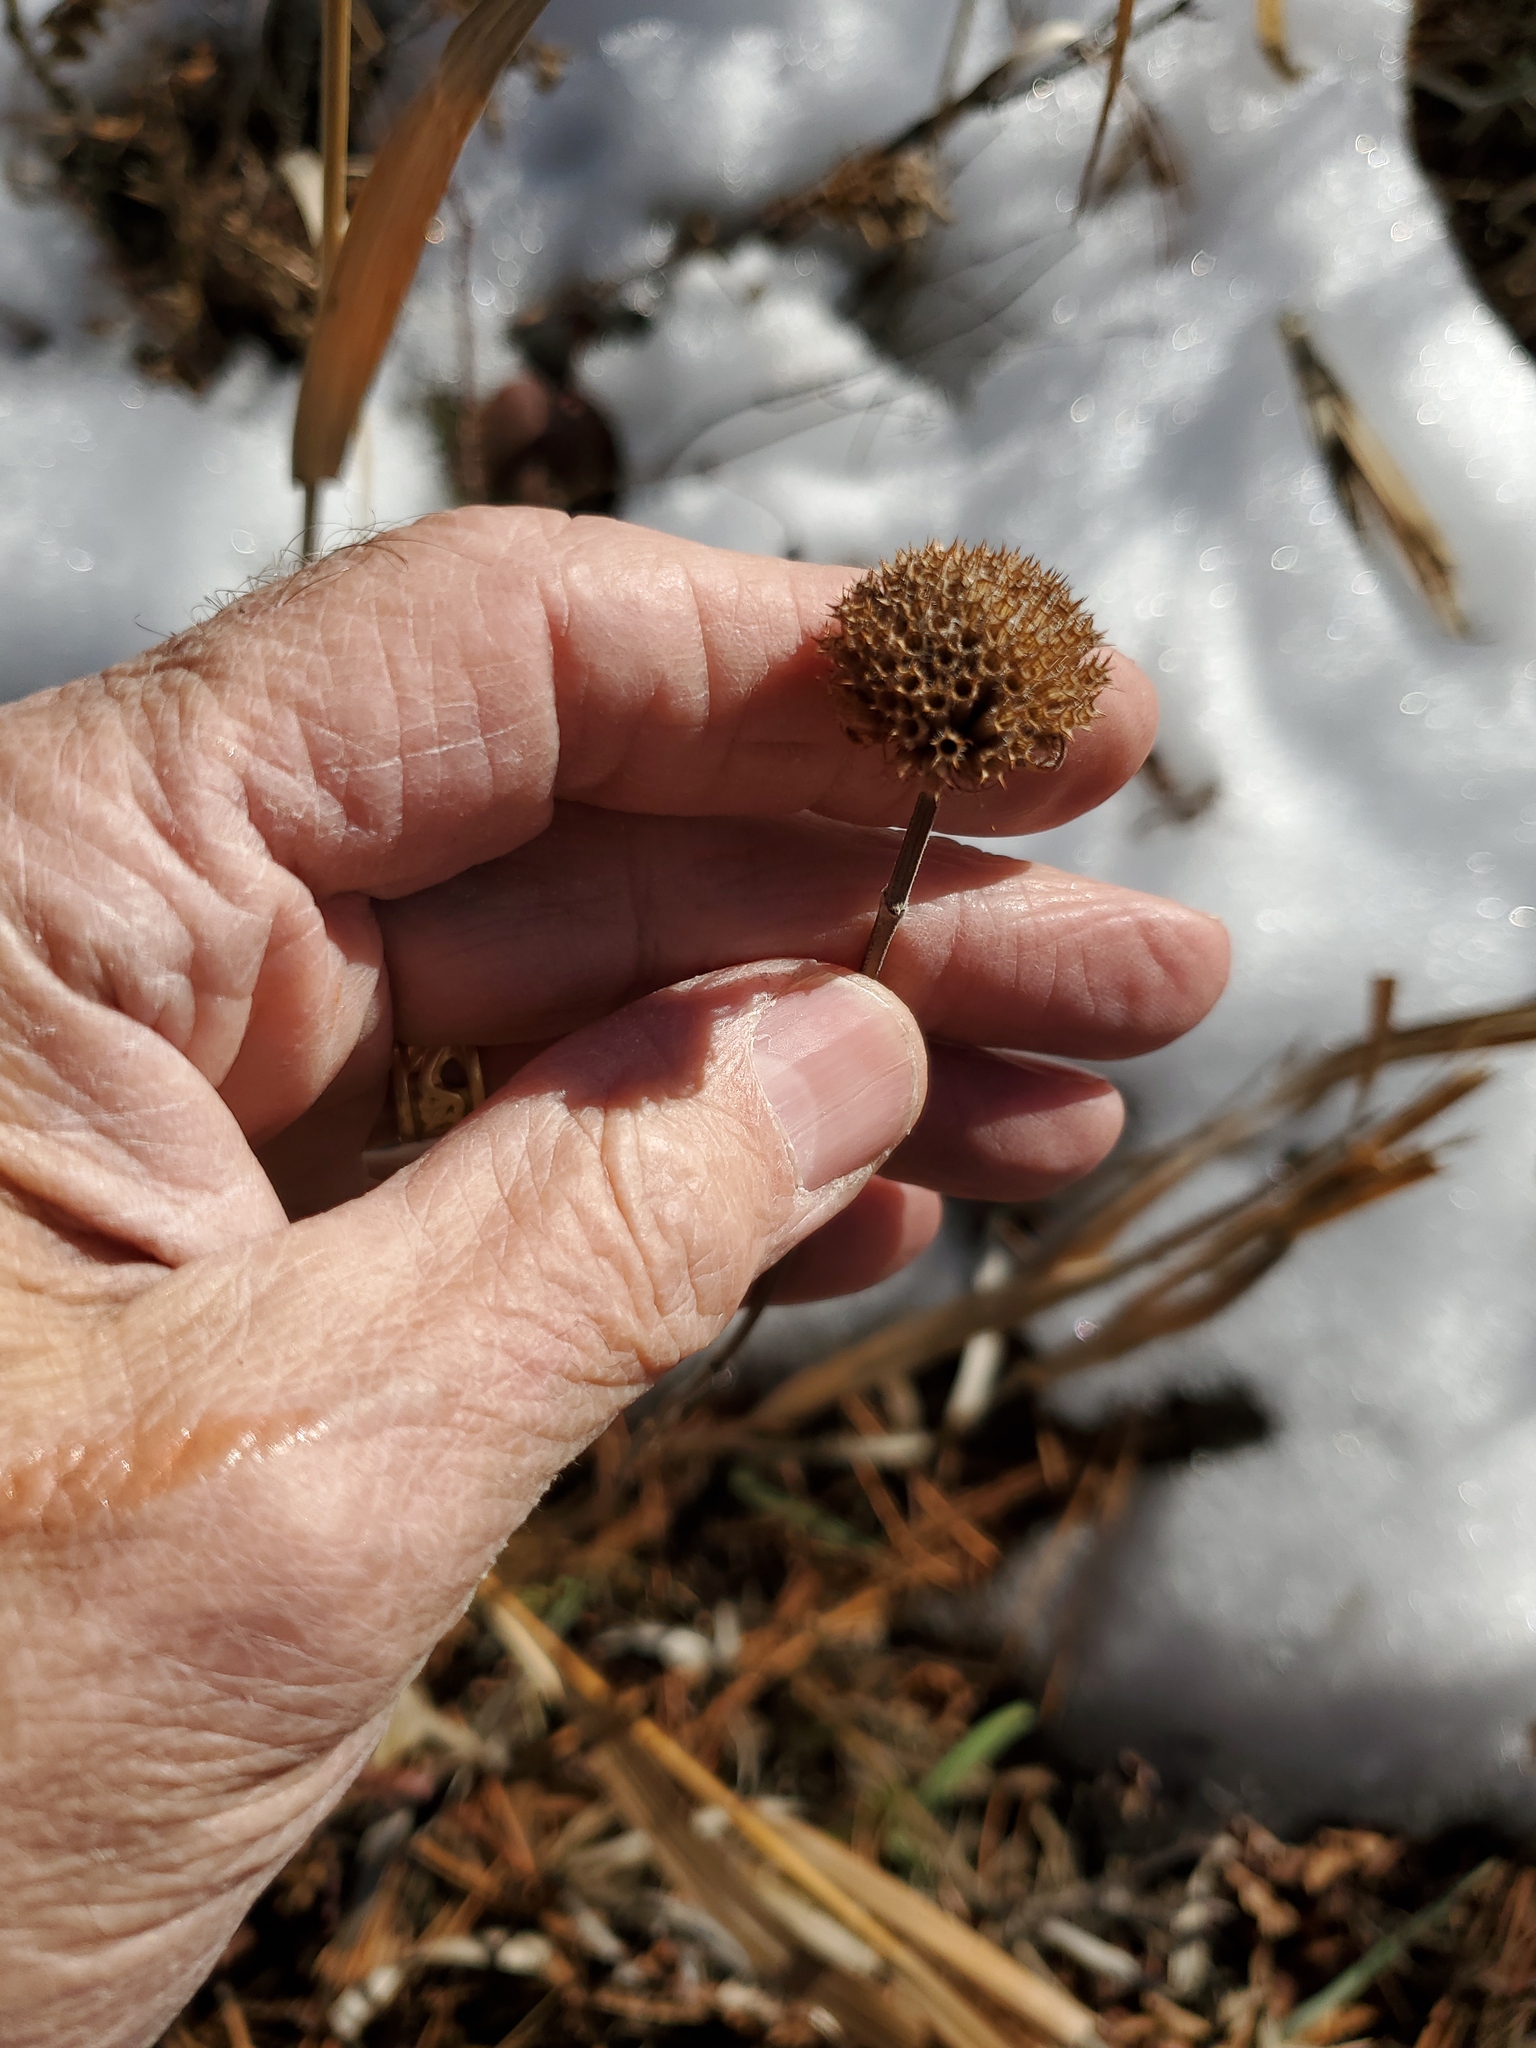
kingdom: Plantae
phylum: Tracheophyta
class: Magnoliopsida
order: Lamiales
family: Lamiaceae
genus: Monarda
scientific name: Monarda fistulosa
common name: Purple beebalm
